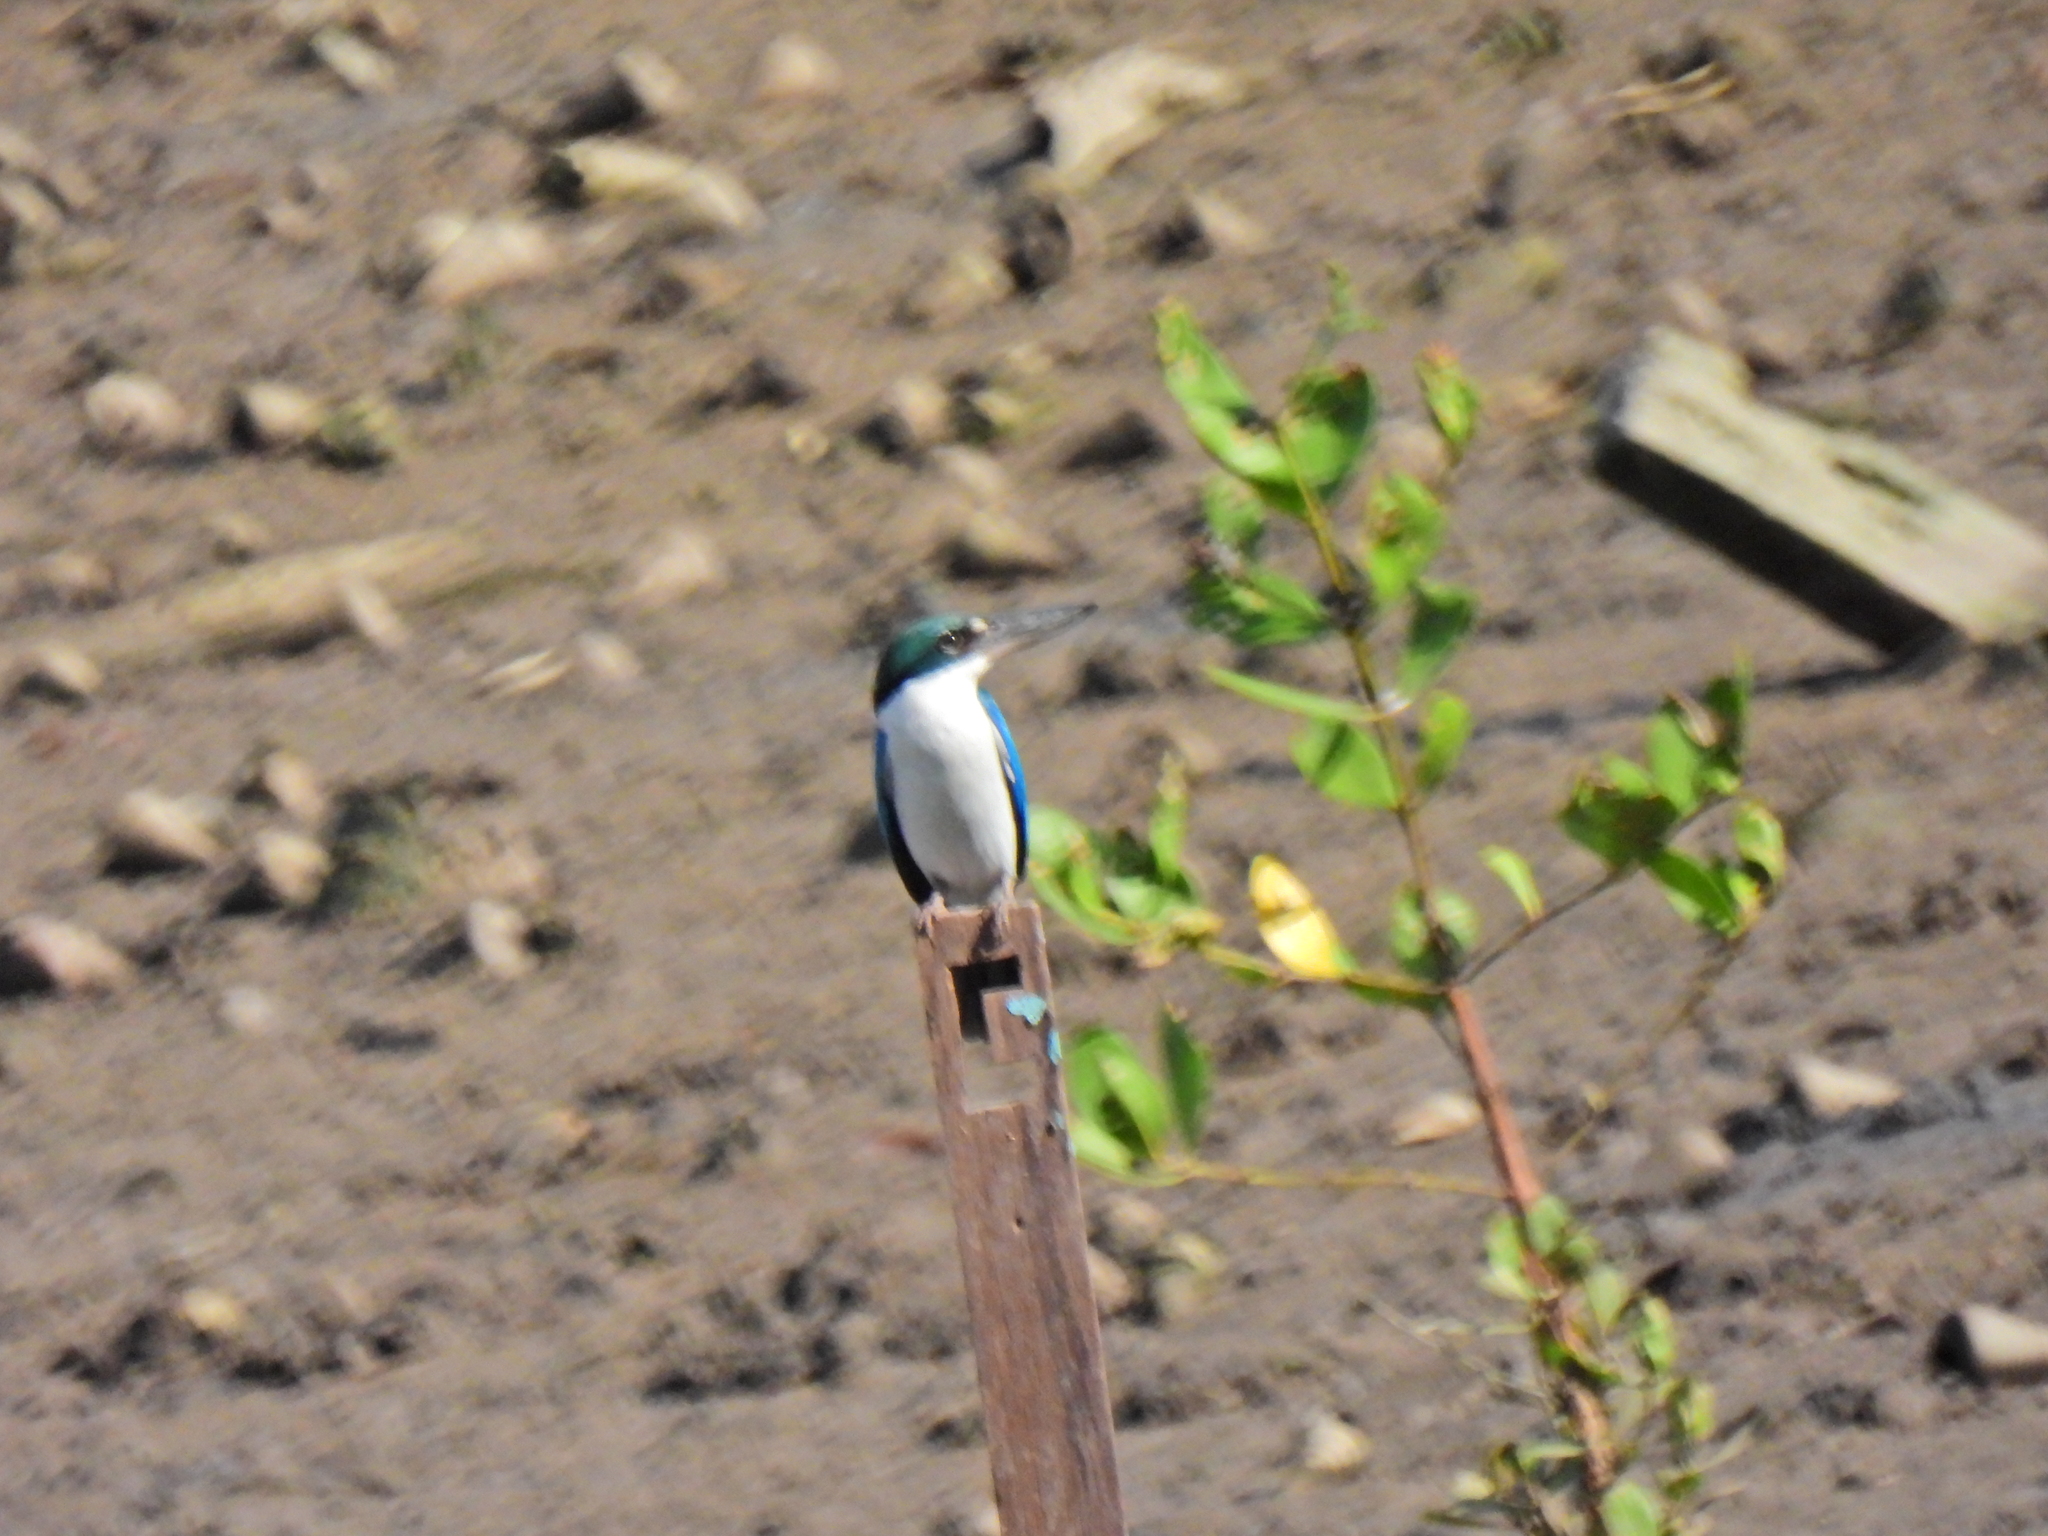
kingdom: Animalia
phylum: Chordata
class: Aves
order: Coraciiformes
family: Alcedinidae
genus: Todiramphus
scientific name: Todiramphus chloris
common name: Collared kingfisher
